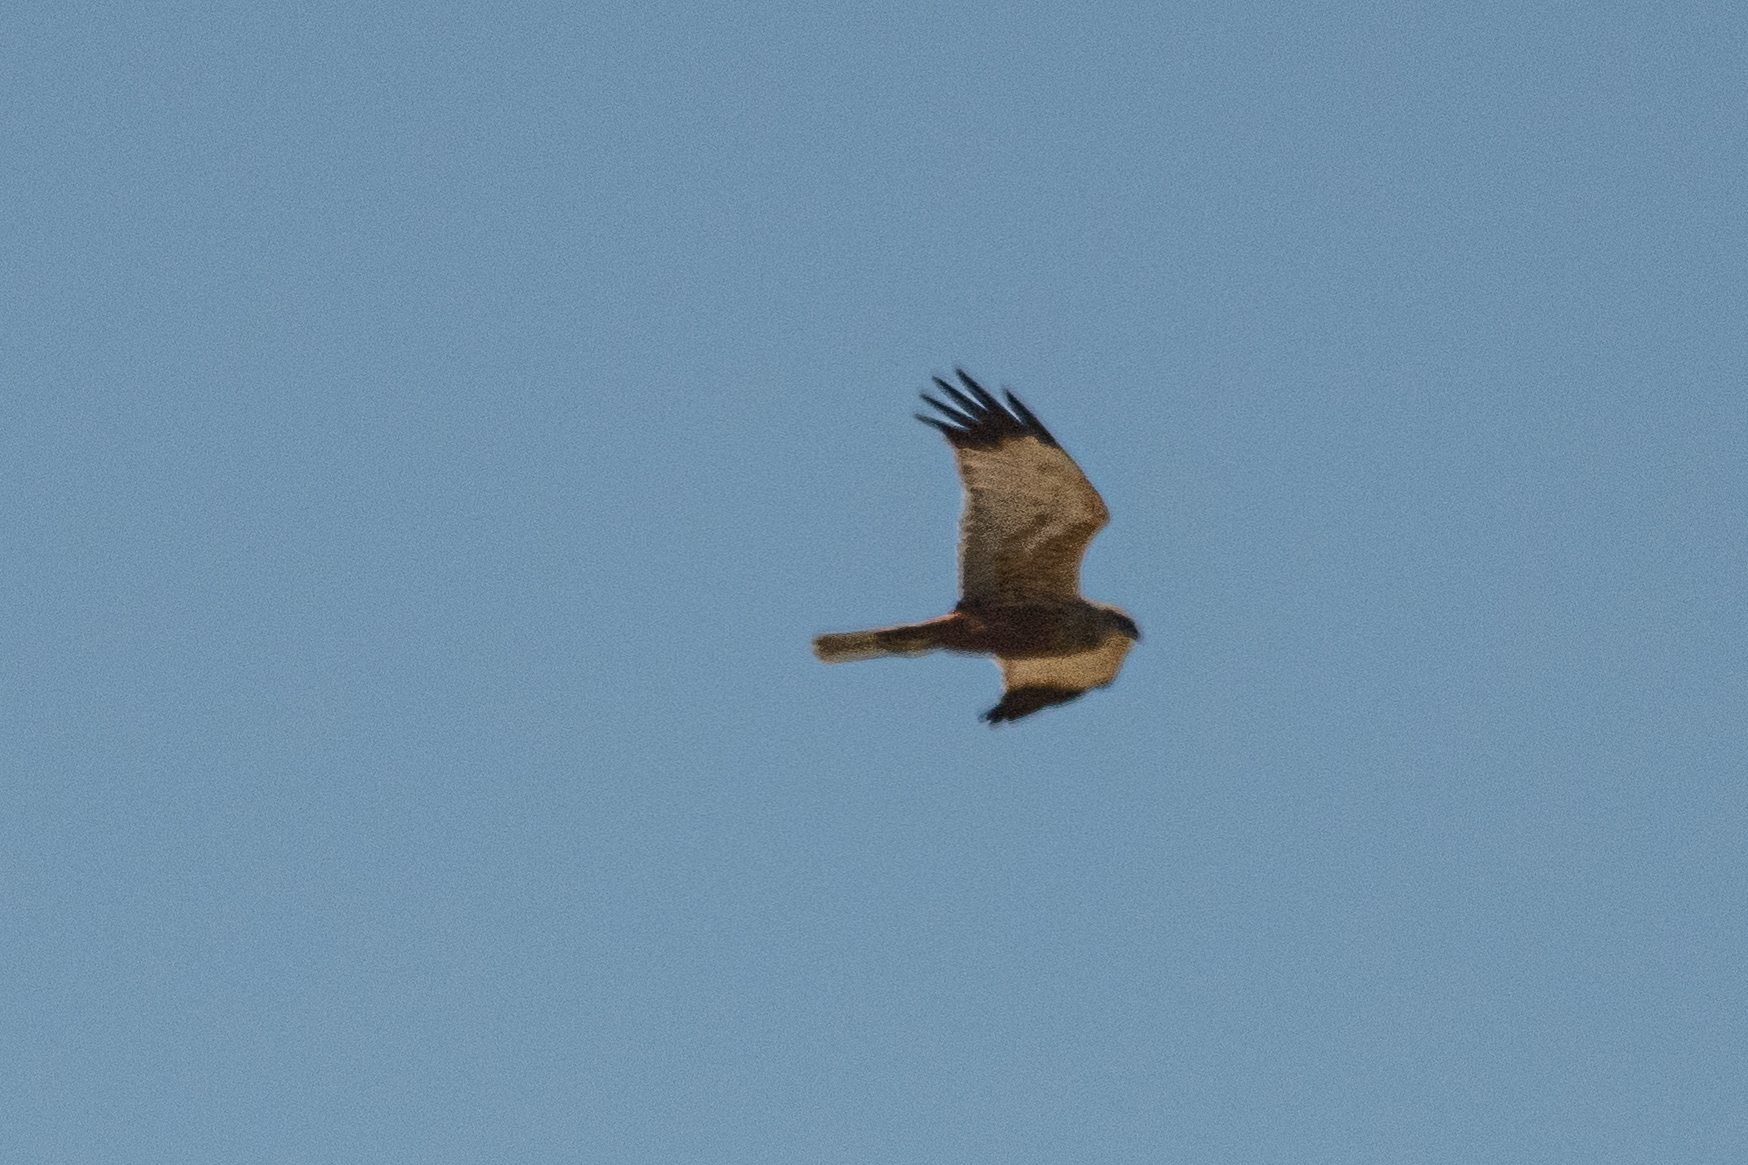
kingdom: Animalia
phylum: Chordata
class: Aves
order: Accipitriformes
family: Accipitridae
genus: Circus
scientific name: Circus aeruginosus
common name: Western marsh harrier
